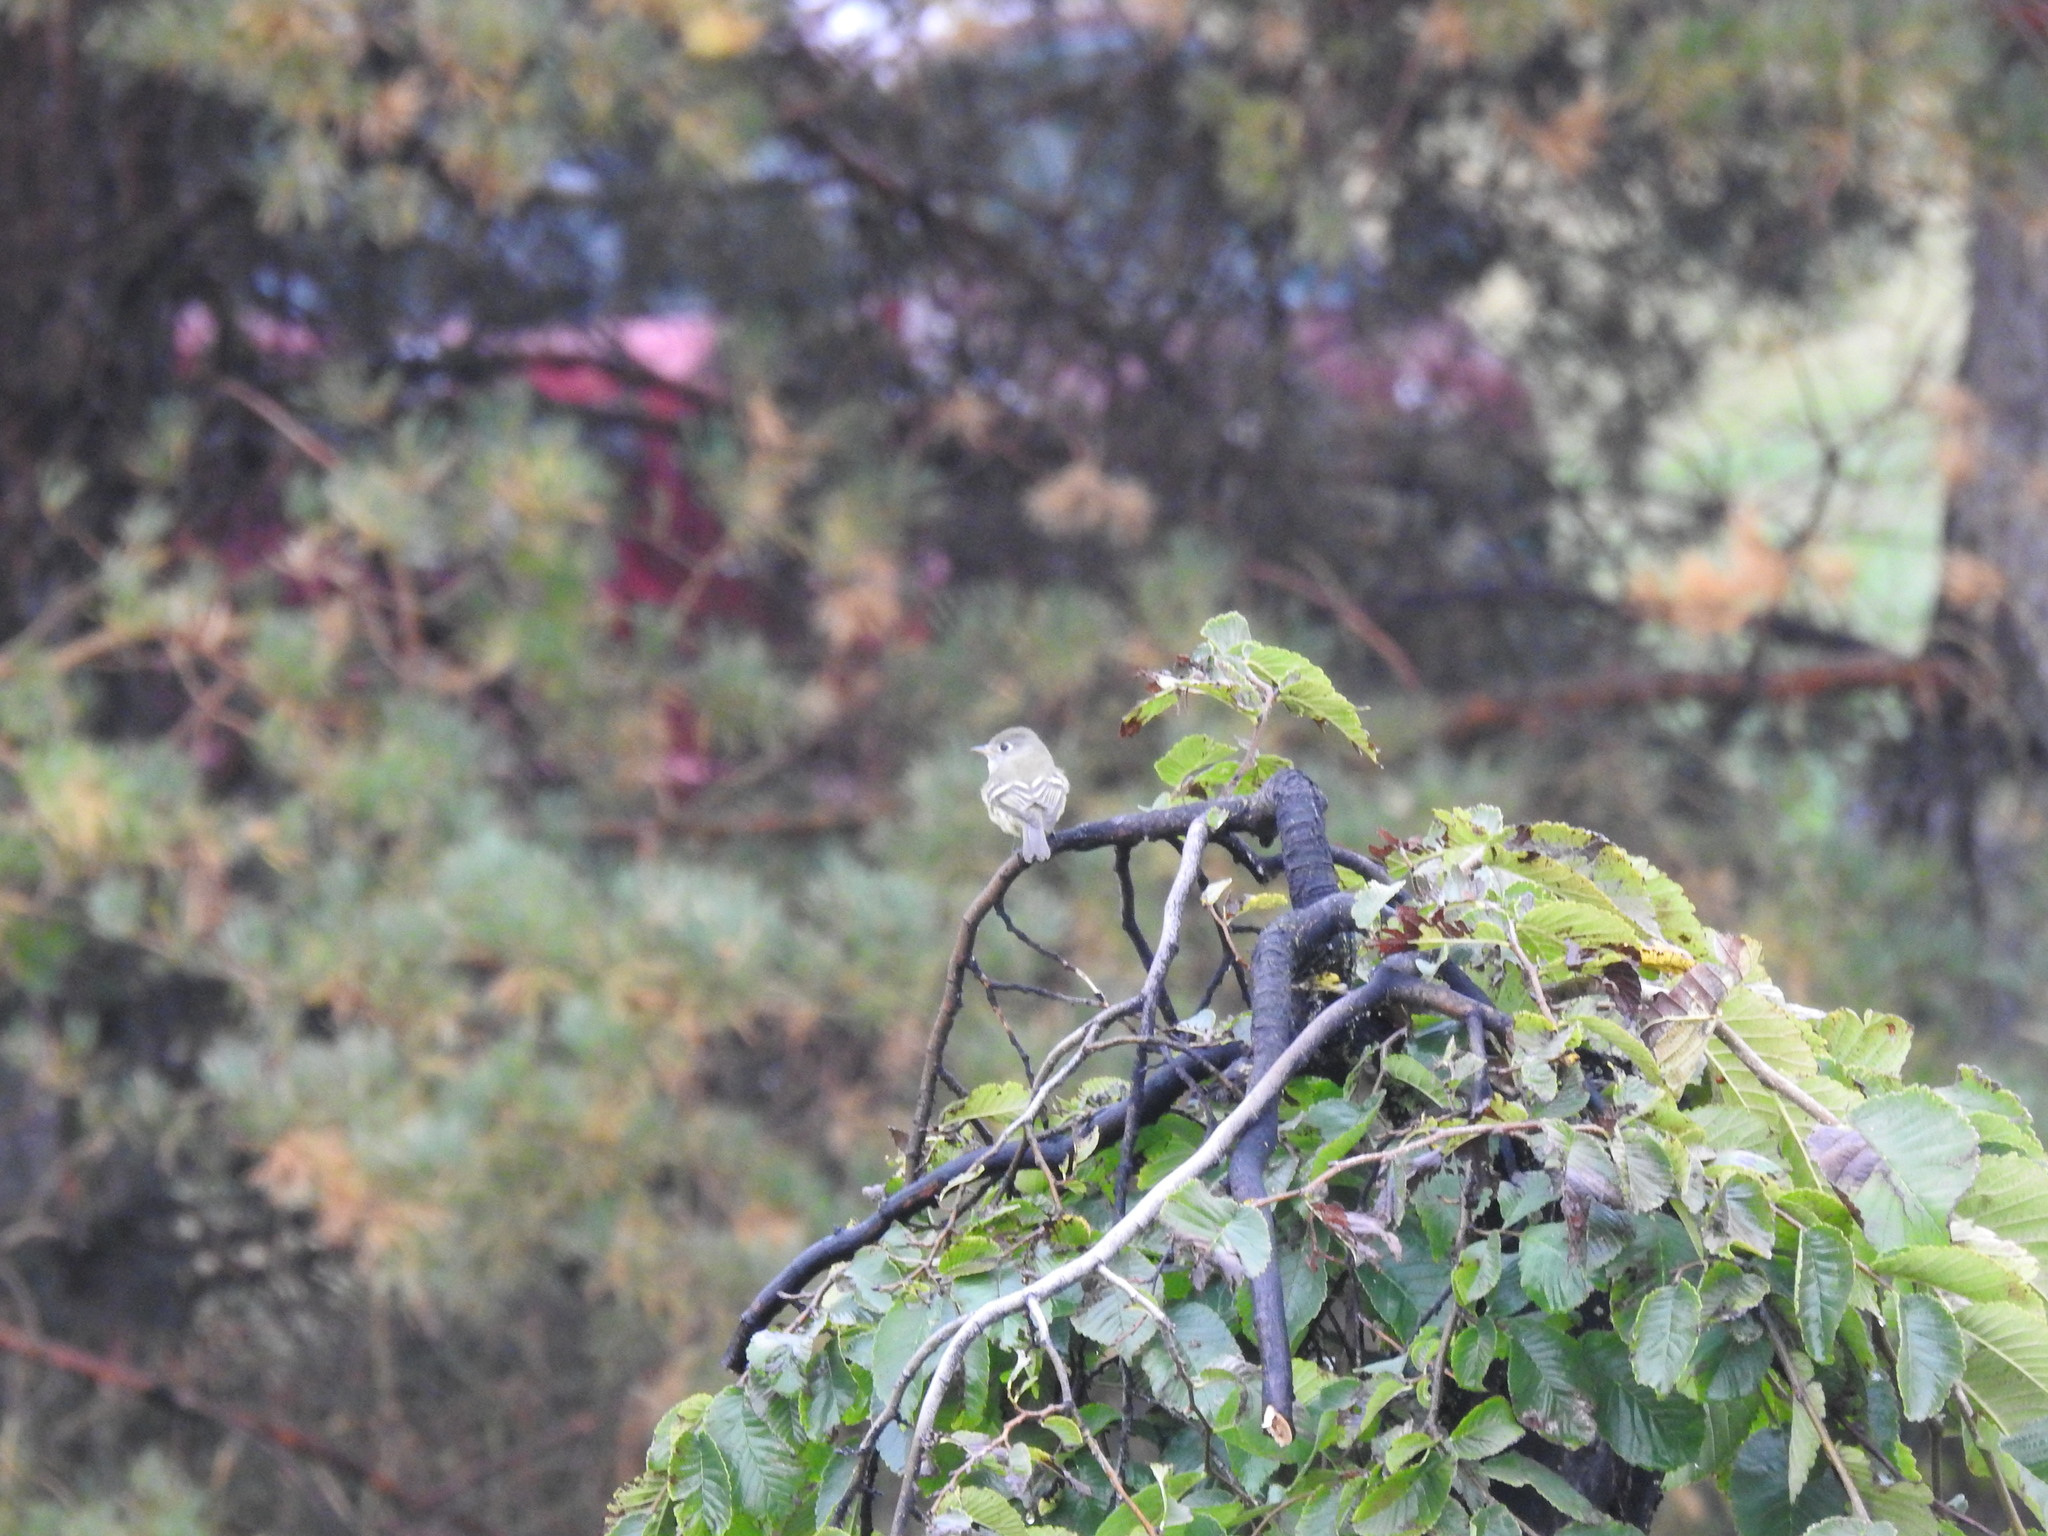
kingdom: Animalia
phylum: Chordata
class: Aves
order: Passeriformes
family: Tyrannidae
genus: Empidonax
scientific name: Empidonax hammondii
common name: Hammond's flycatcher
